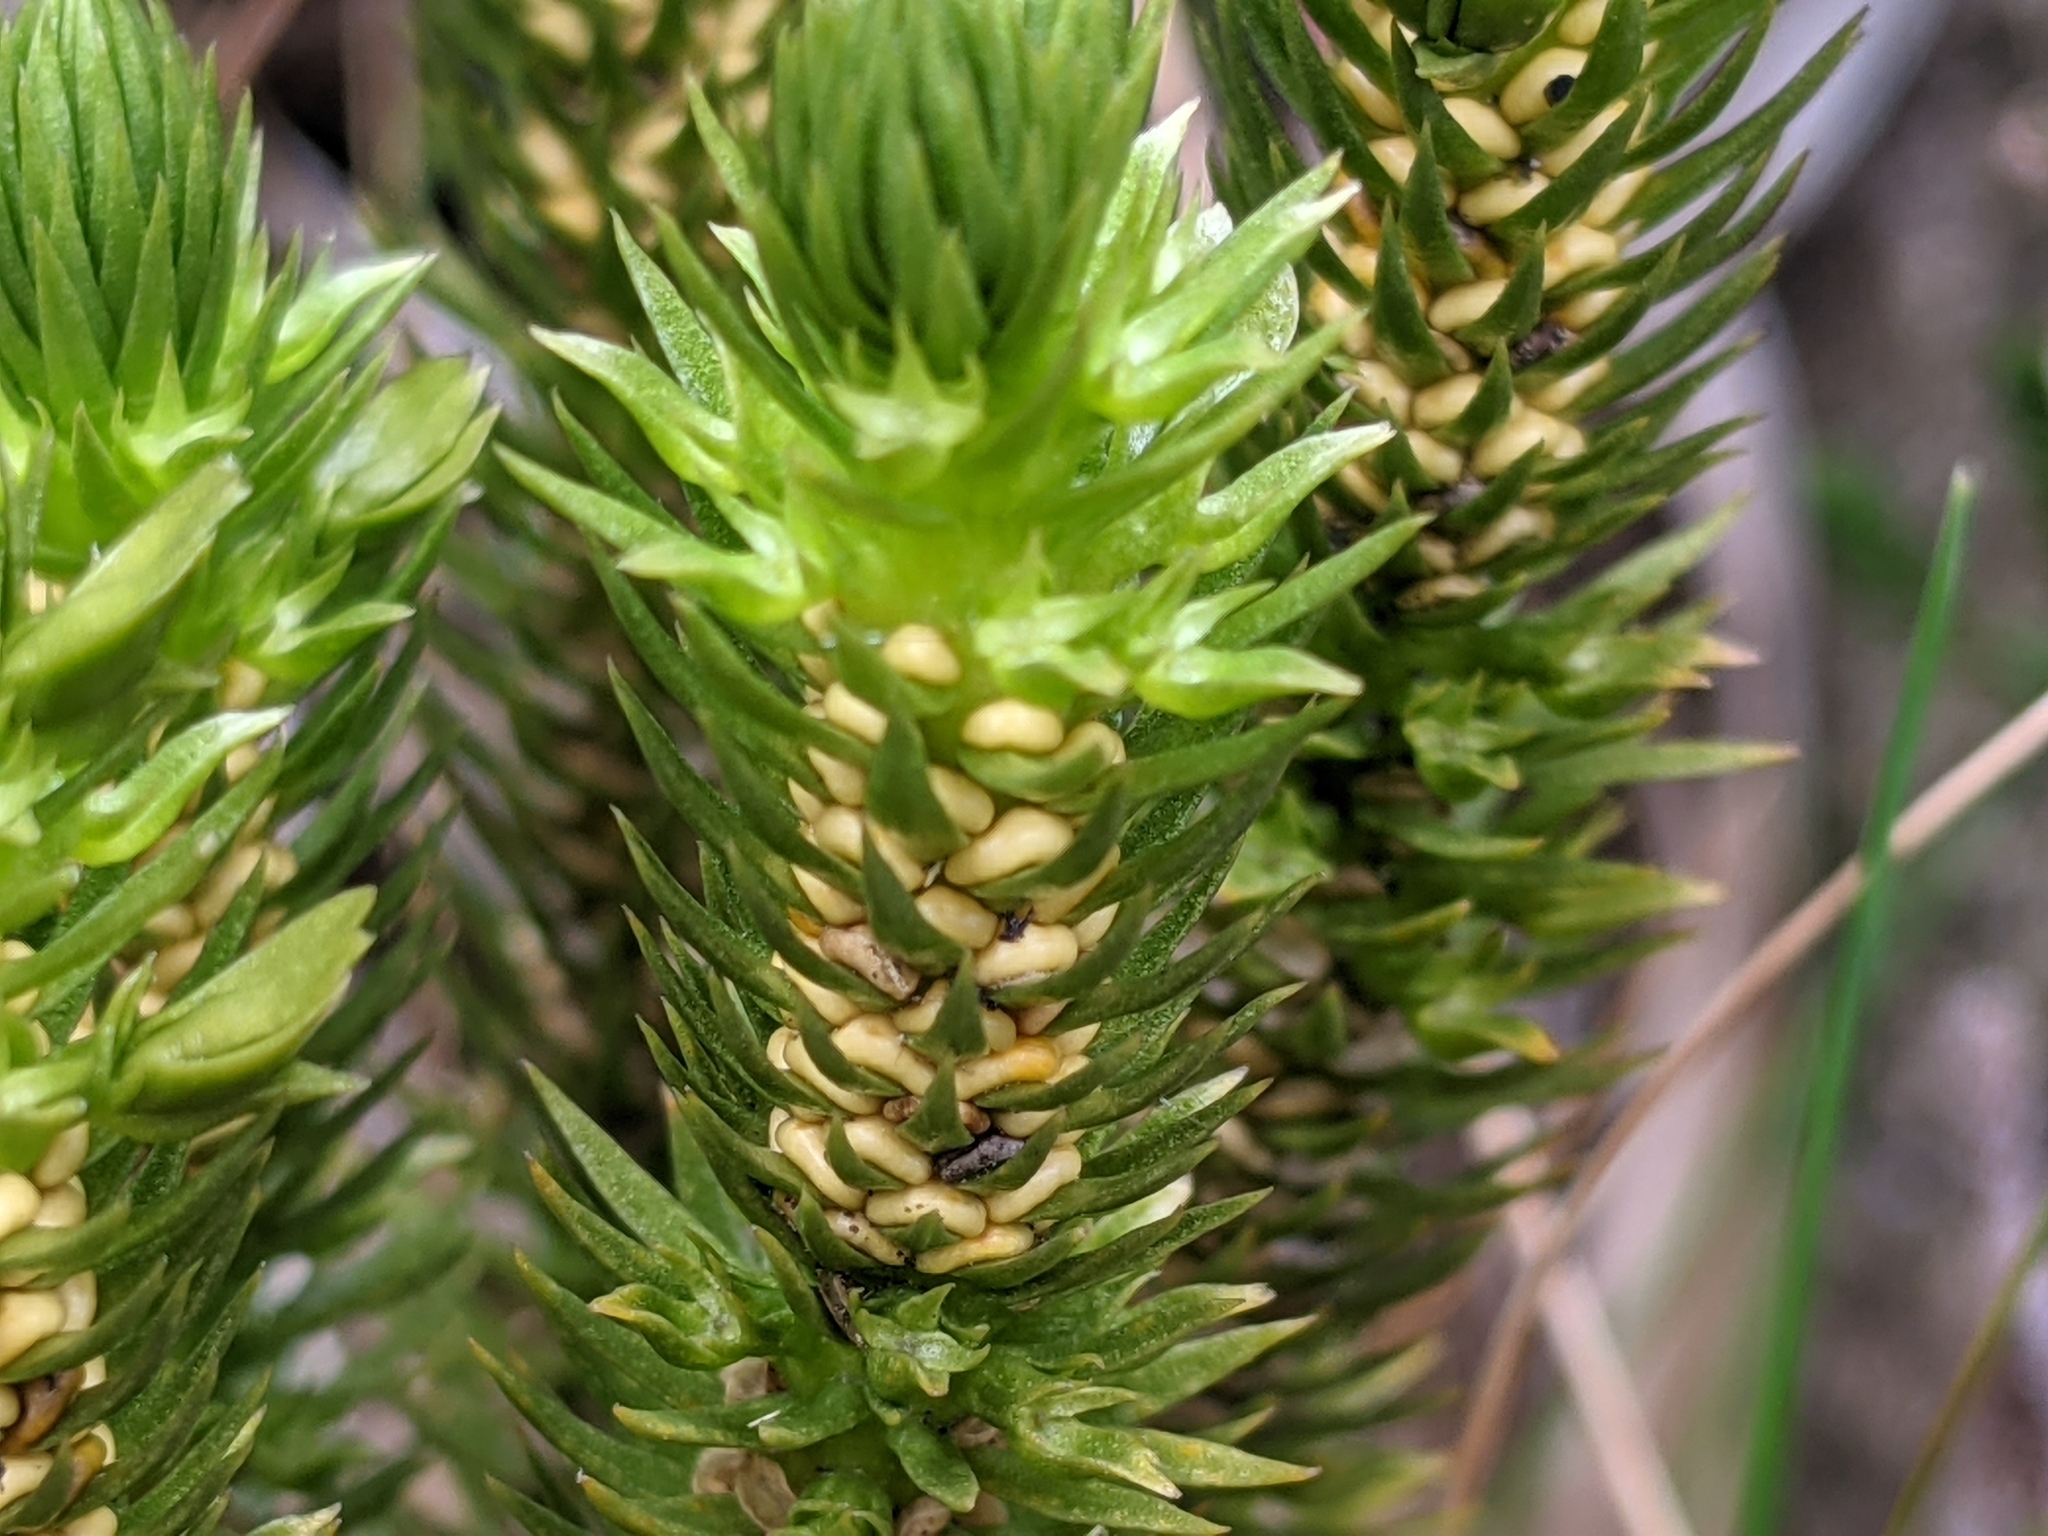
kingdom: Plantae
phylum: Tracheophyta
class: Lycopodiopsida
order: Lycopodiales
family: Lycopodiaceae
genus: Huperzia
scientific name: Huperzia selago
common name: Northern firmoss
